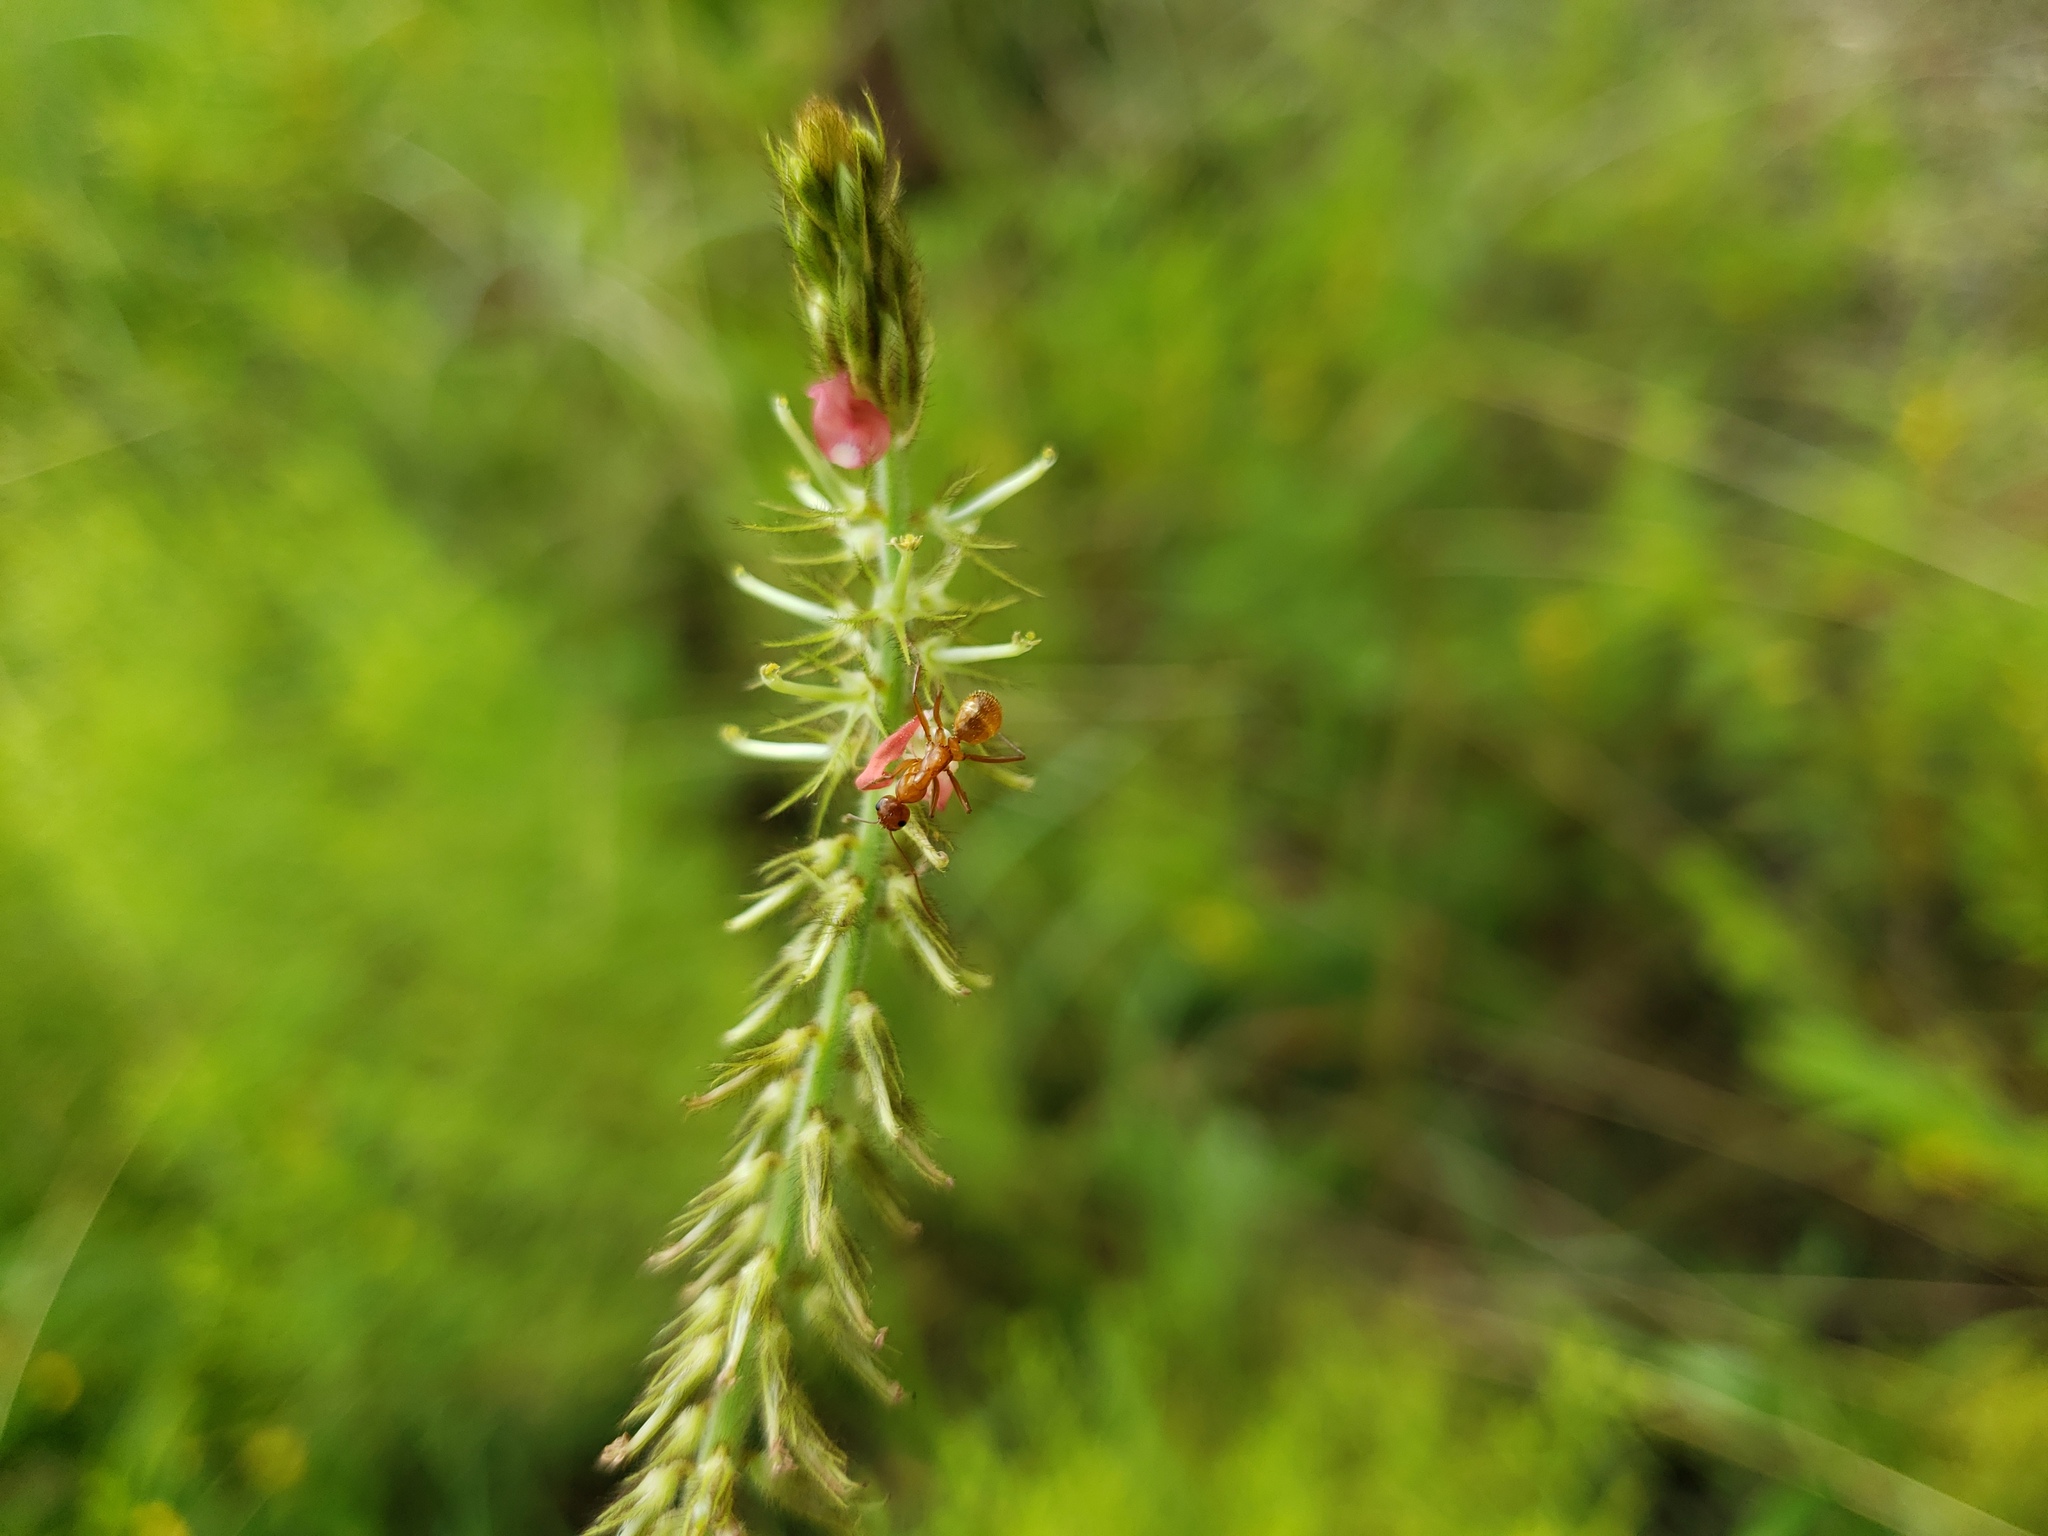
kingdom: Plantae
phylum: Tracheophyta
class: Magnoliopsida
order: Fabales
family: Fabaceae
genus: Indigofera
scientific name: Indigofera hirsuta
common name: Hairy indigo
